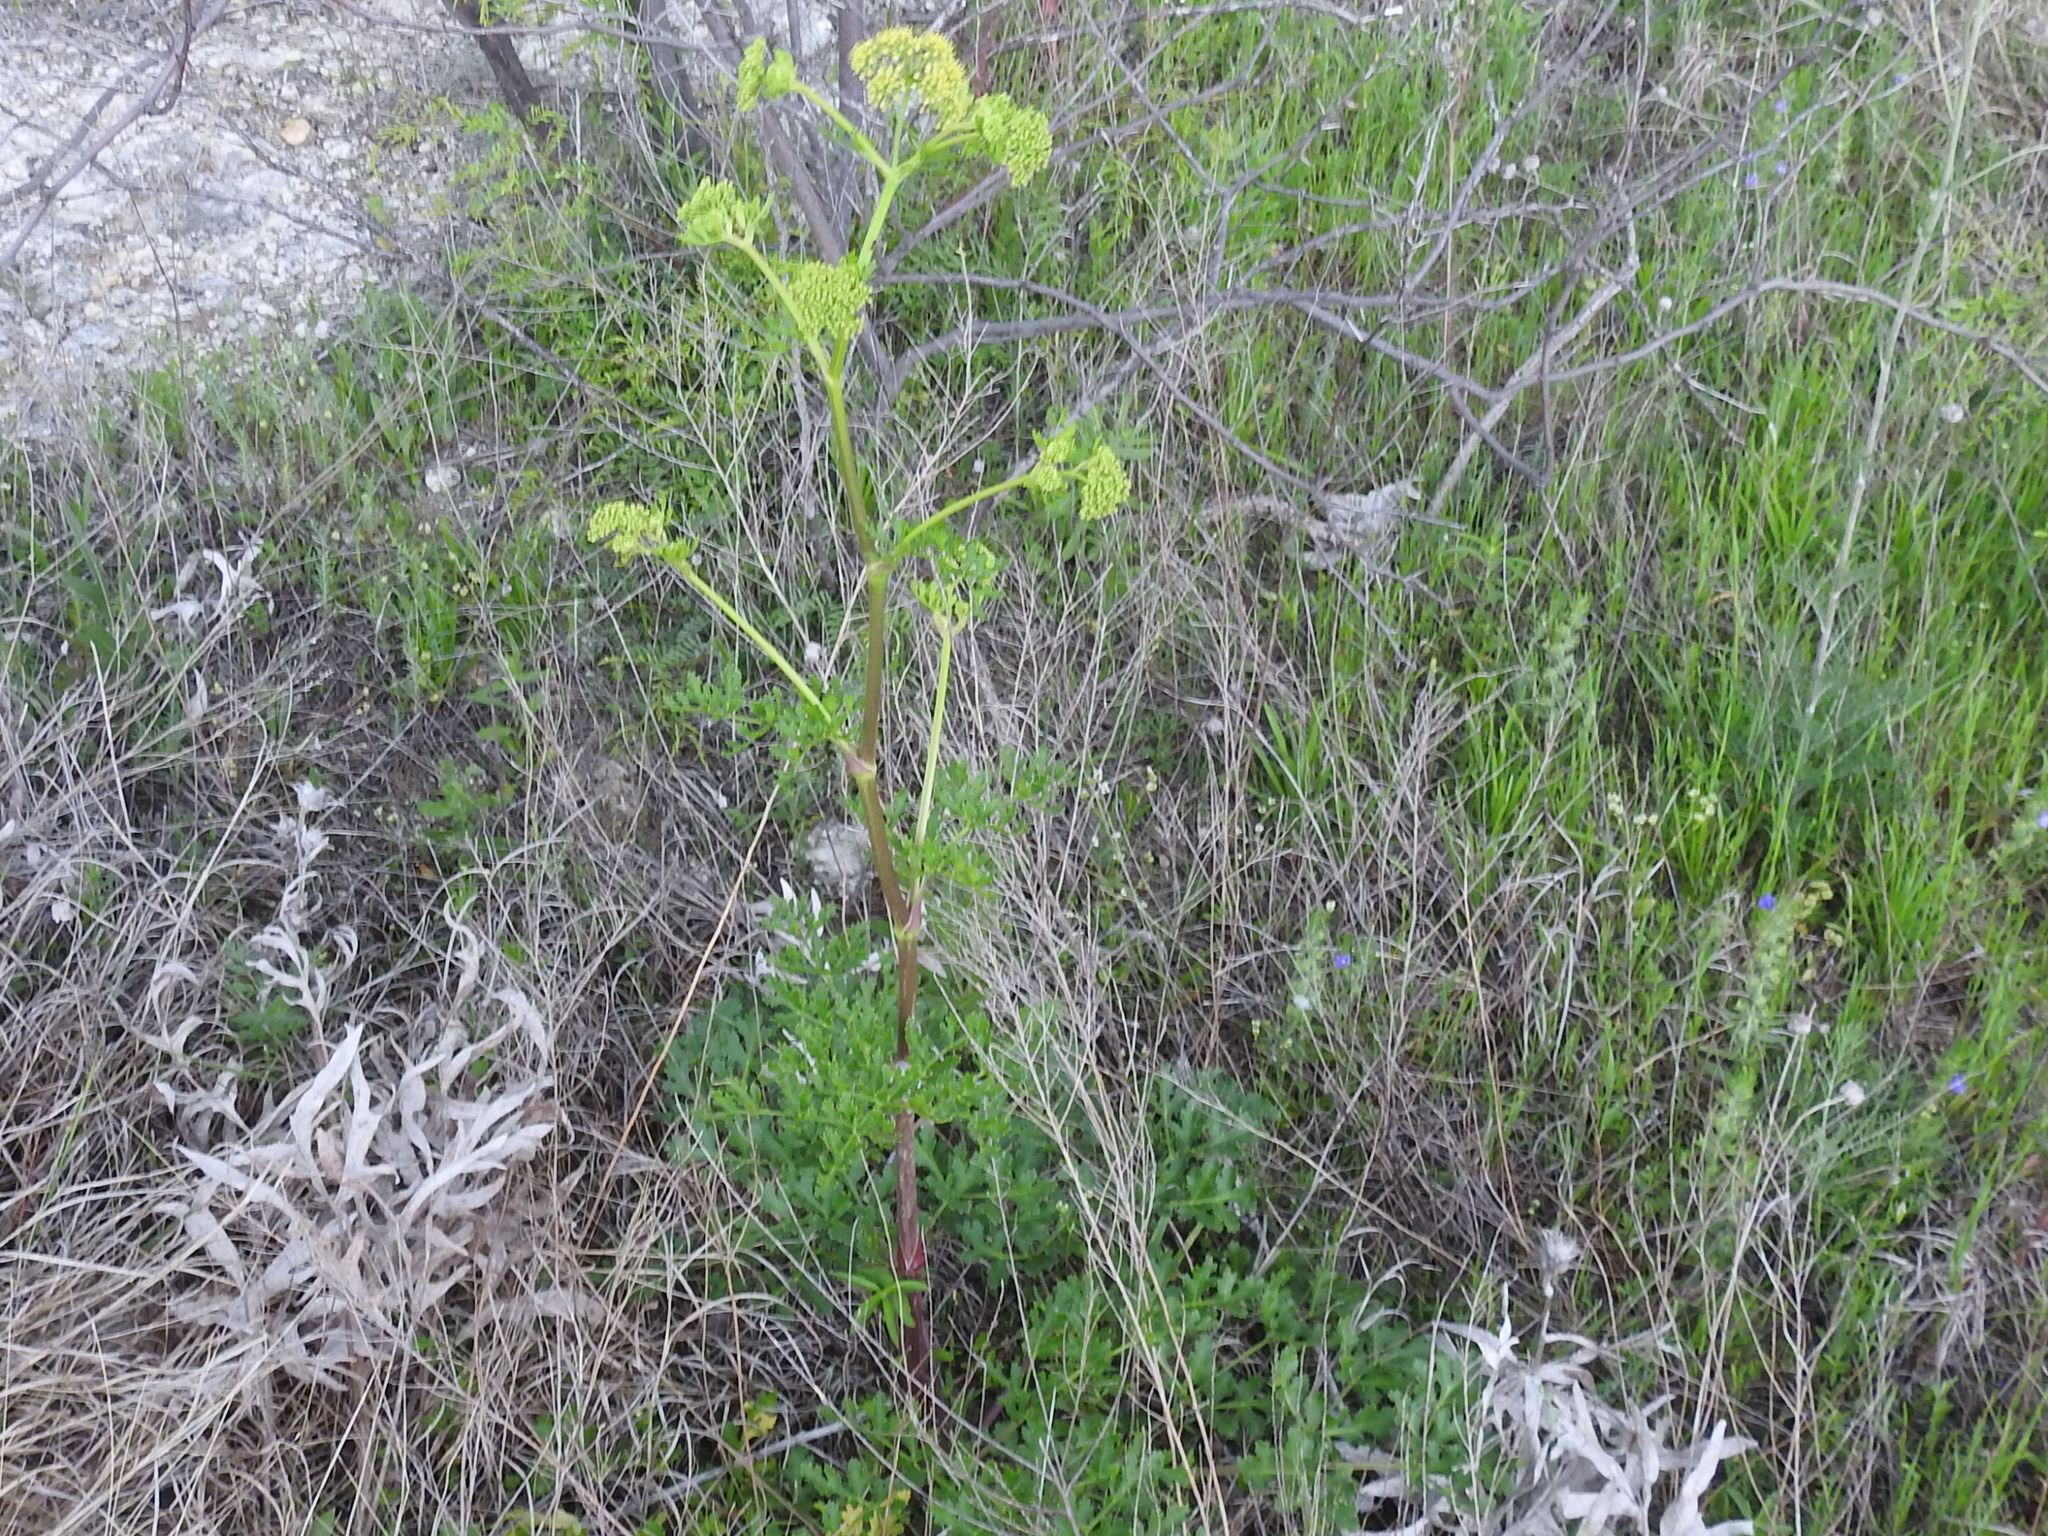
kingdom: Plantae
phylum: Tracheophyta
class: Magnoliopsida
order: Apiales
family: Apiaceae
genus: Polytaenia
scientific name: Polytaenia texana
